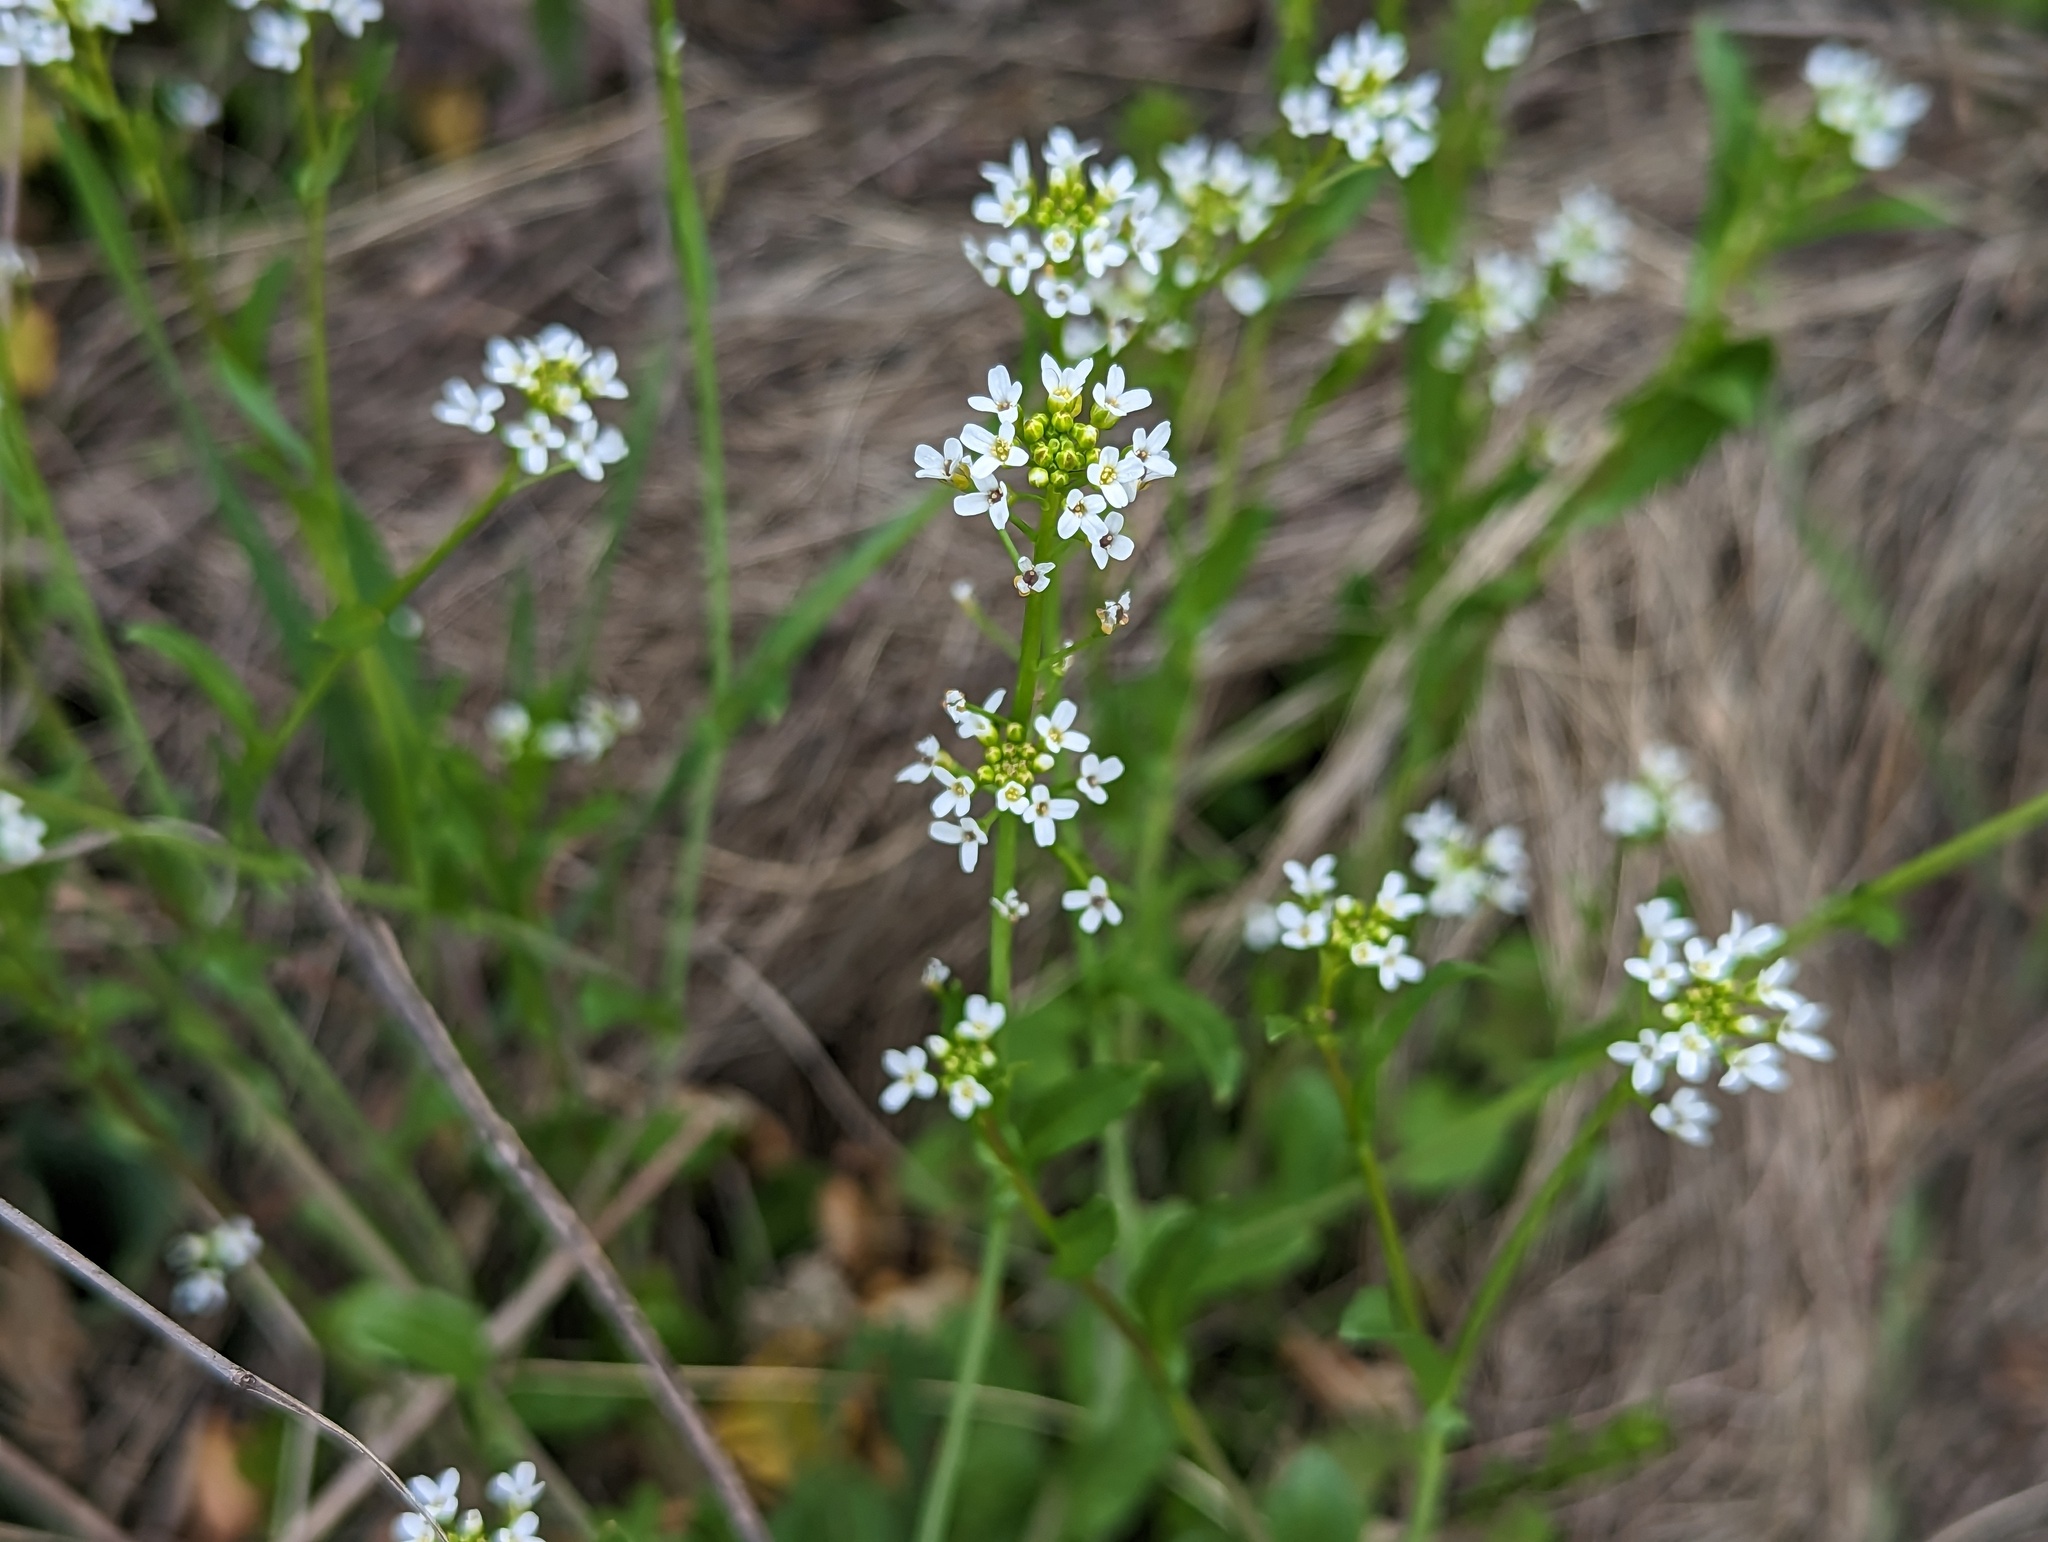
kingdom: Plantae
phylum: Tracheophyta
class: Magnoliopsida
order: Brassicales
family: Brassicaceae
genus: Calepina
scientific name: Calepina irregularis
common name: White ballmustard
